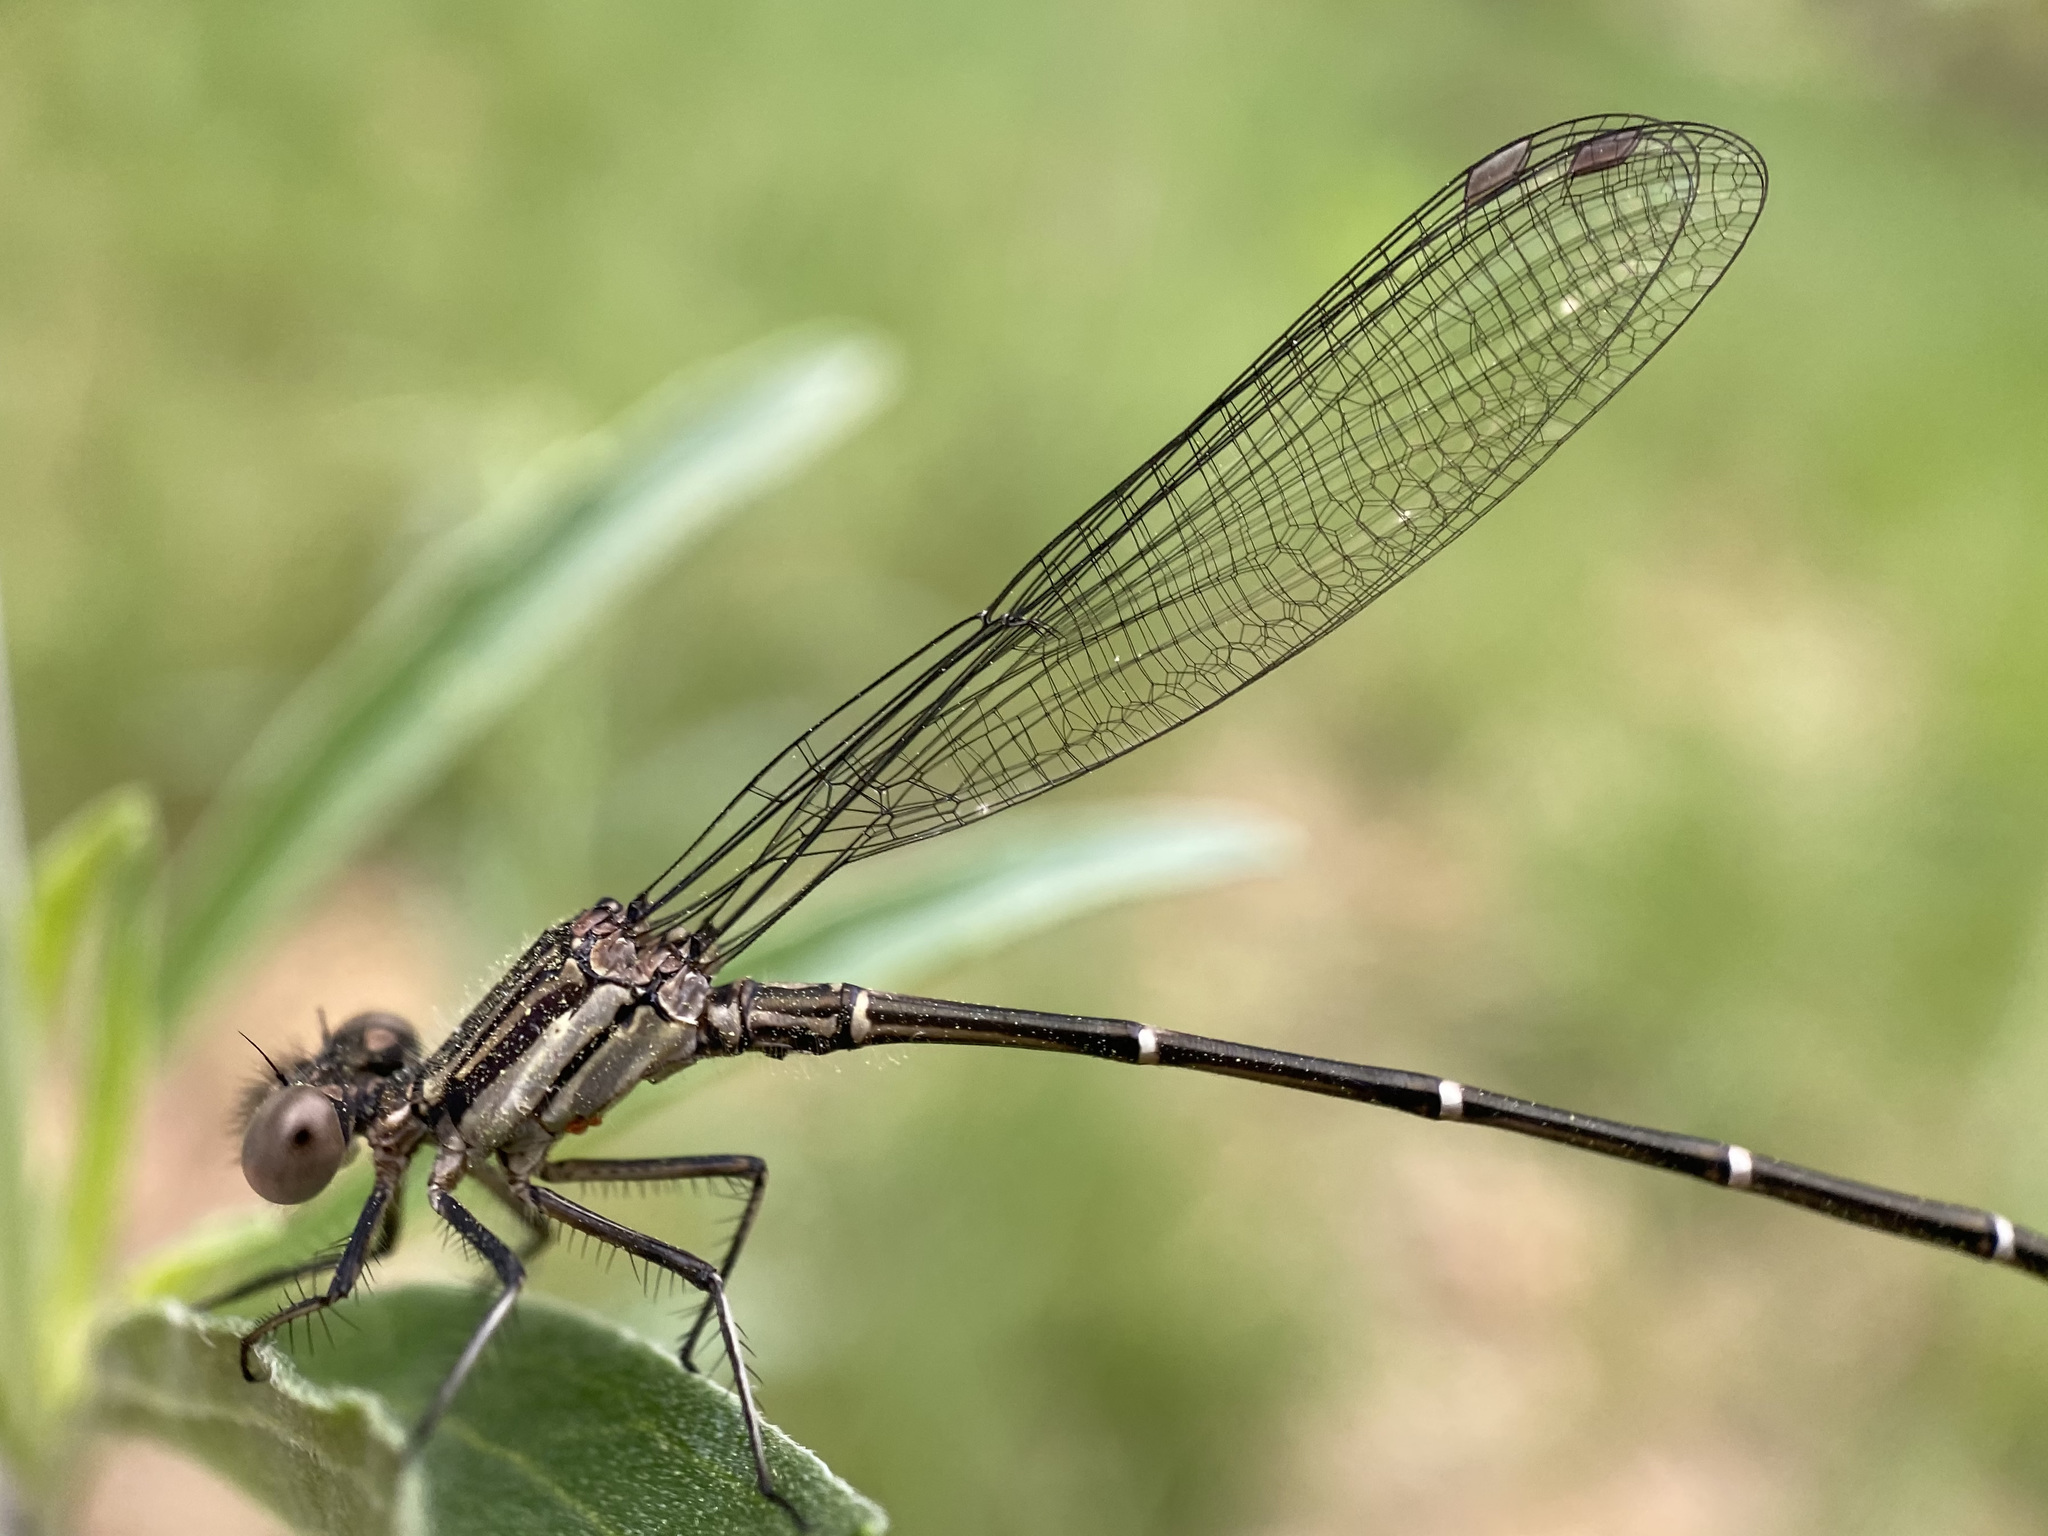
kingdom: Animalia
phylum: Arthropoda
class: Insecta
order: Odonata
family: Coenagrionidae
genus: Argia
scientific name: Argia translata
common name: Dusky dancer
